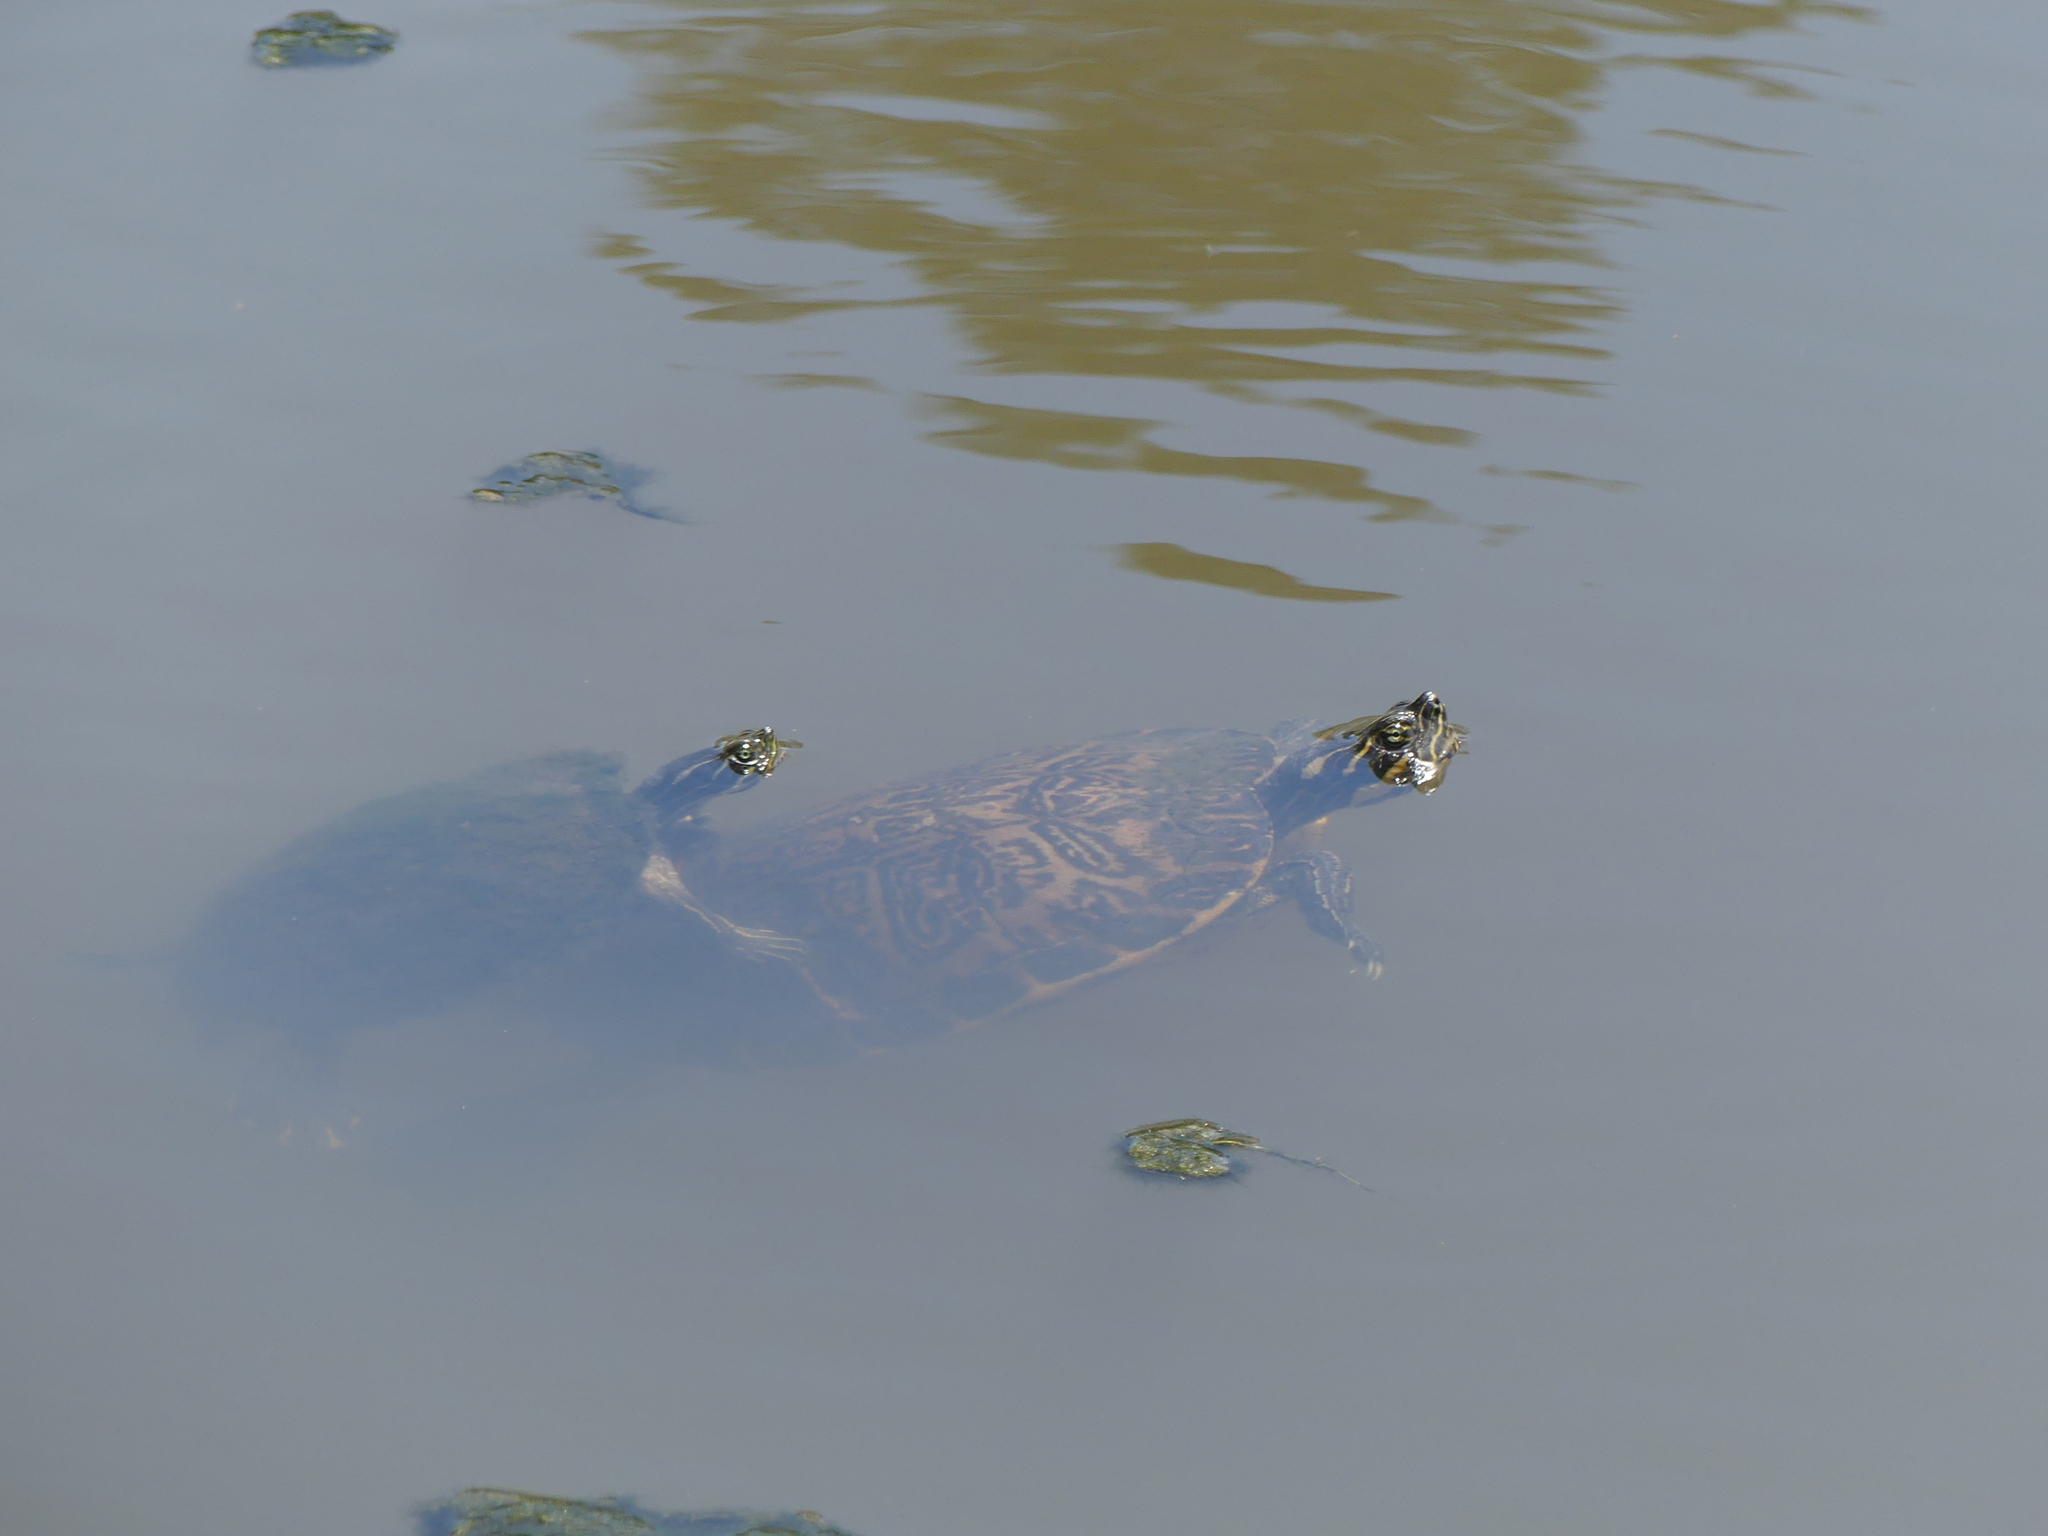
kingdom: Animalia
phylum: Chordata
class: Testudines
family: Emydidae
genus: Trachemys
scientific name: Trachemys scripta
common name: Slider
